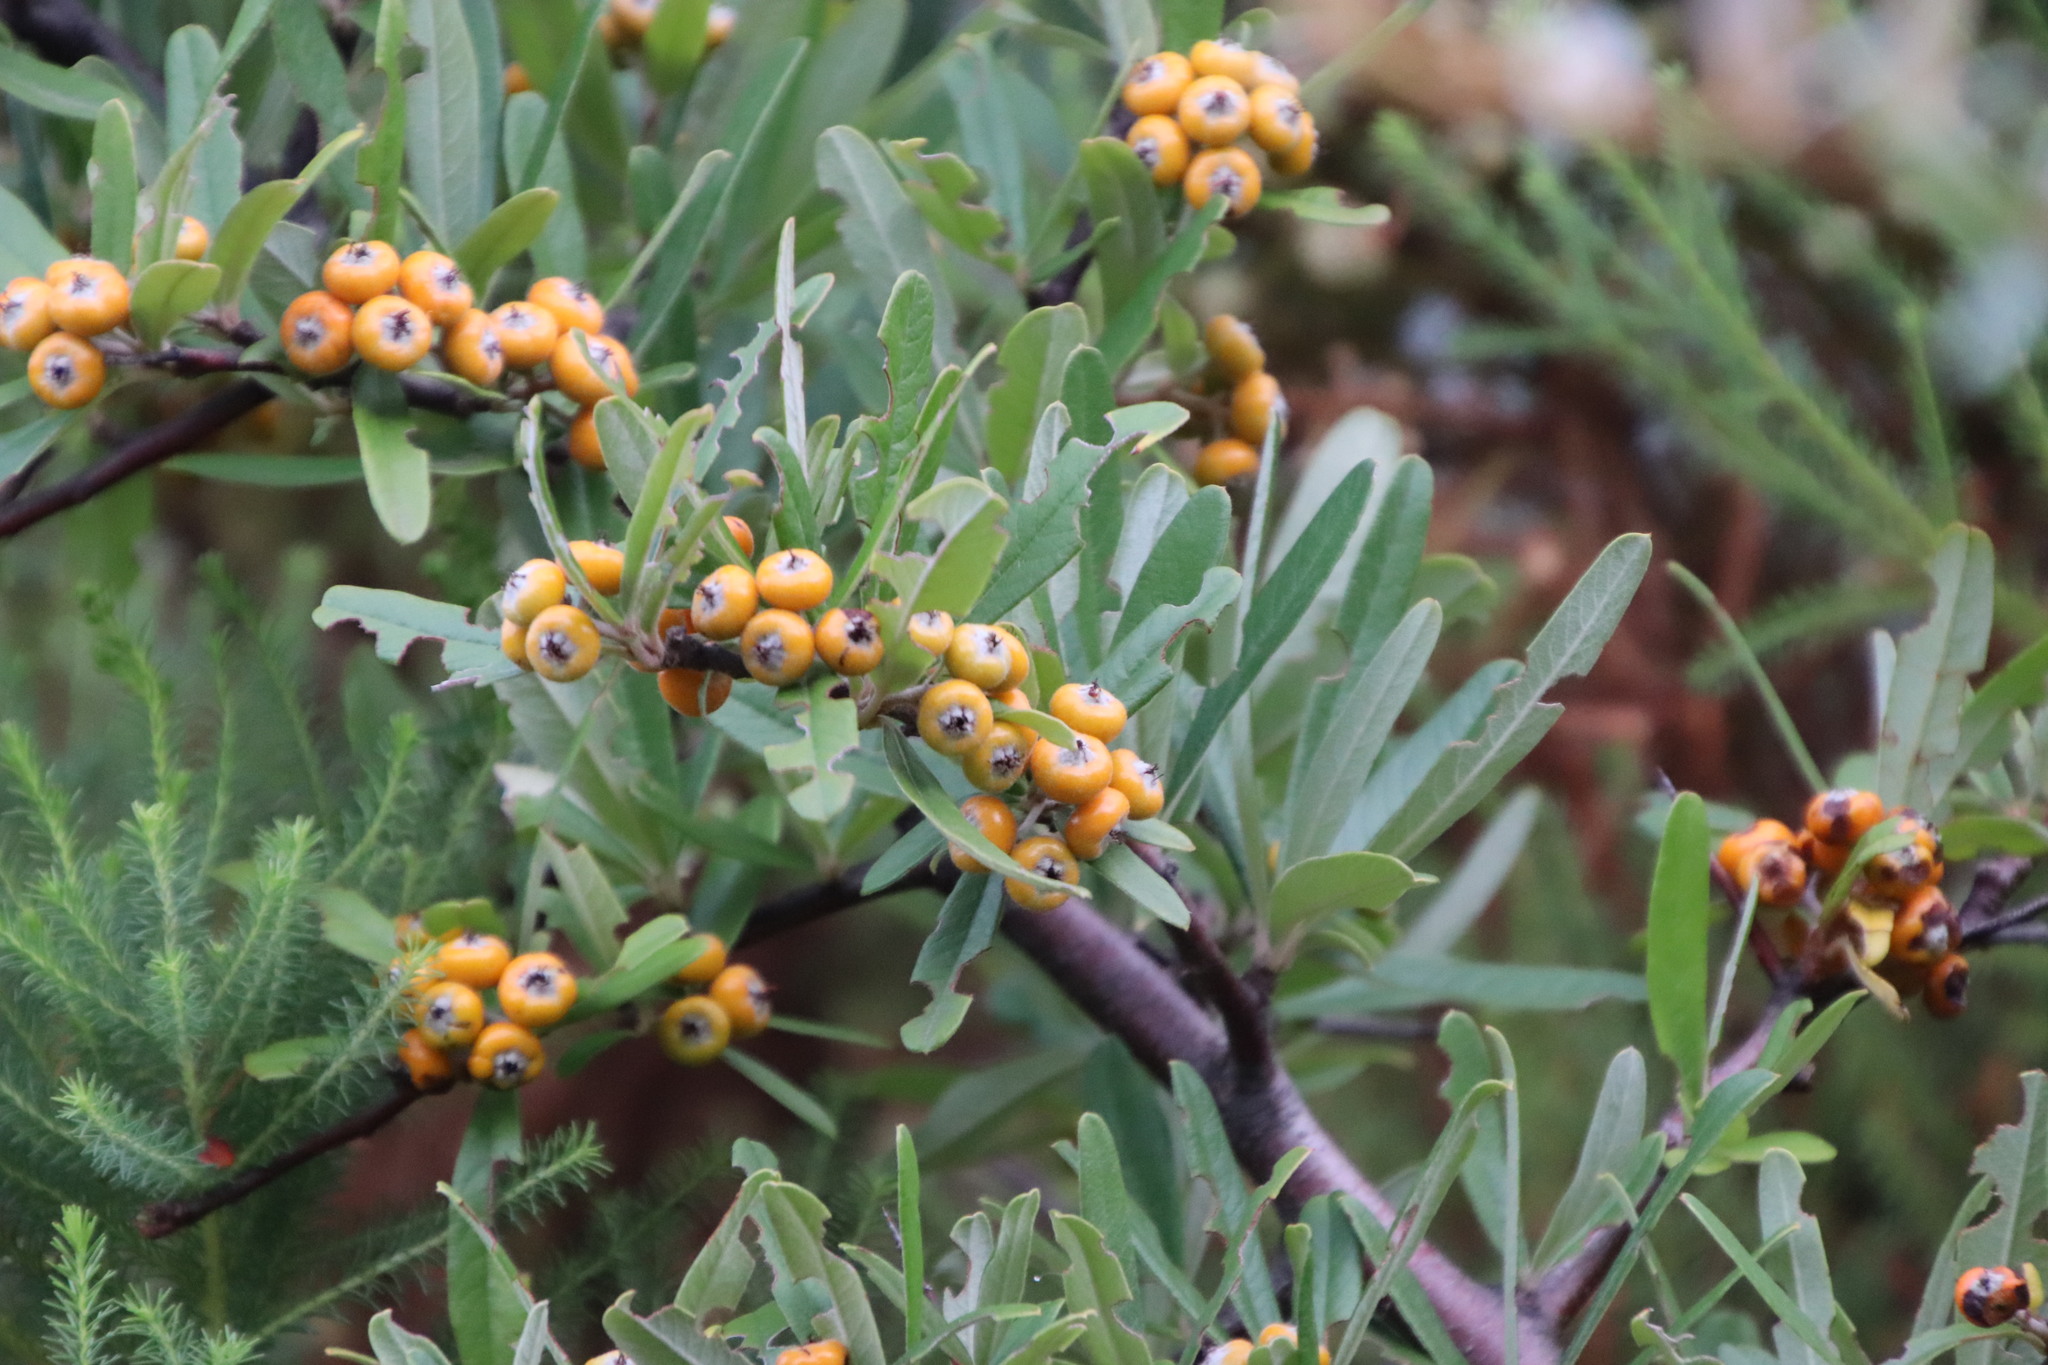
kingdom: Plantae
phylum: Tracheophyta
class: Magnoliopsida
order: Rosales
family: Rosaceae
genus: Pyracantha
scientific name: Pyracantha angustifolia
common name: Narrowleaf firethorn
